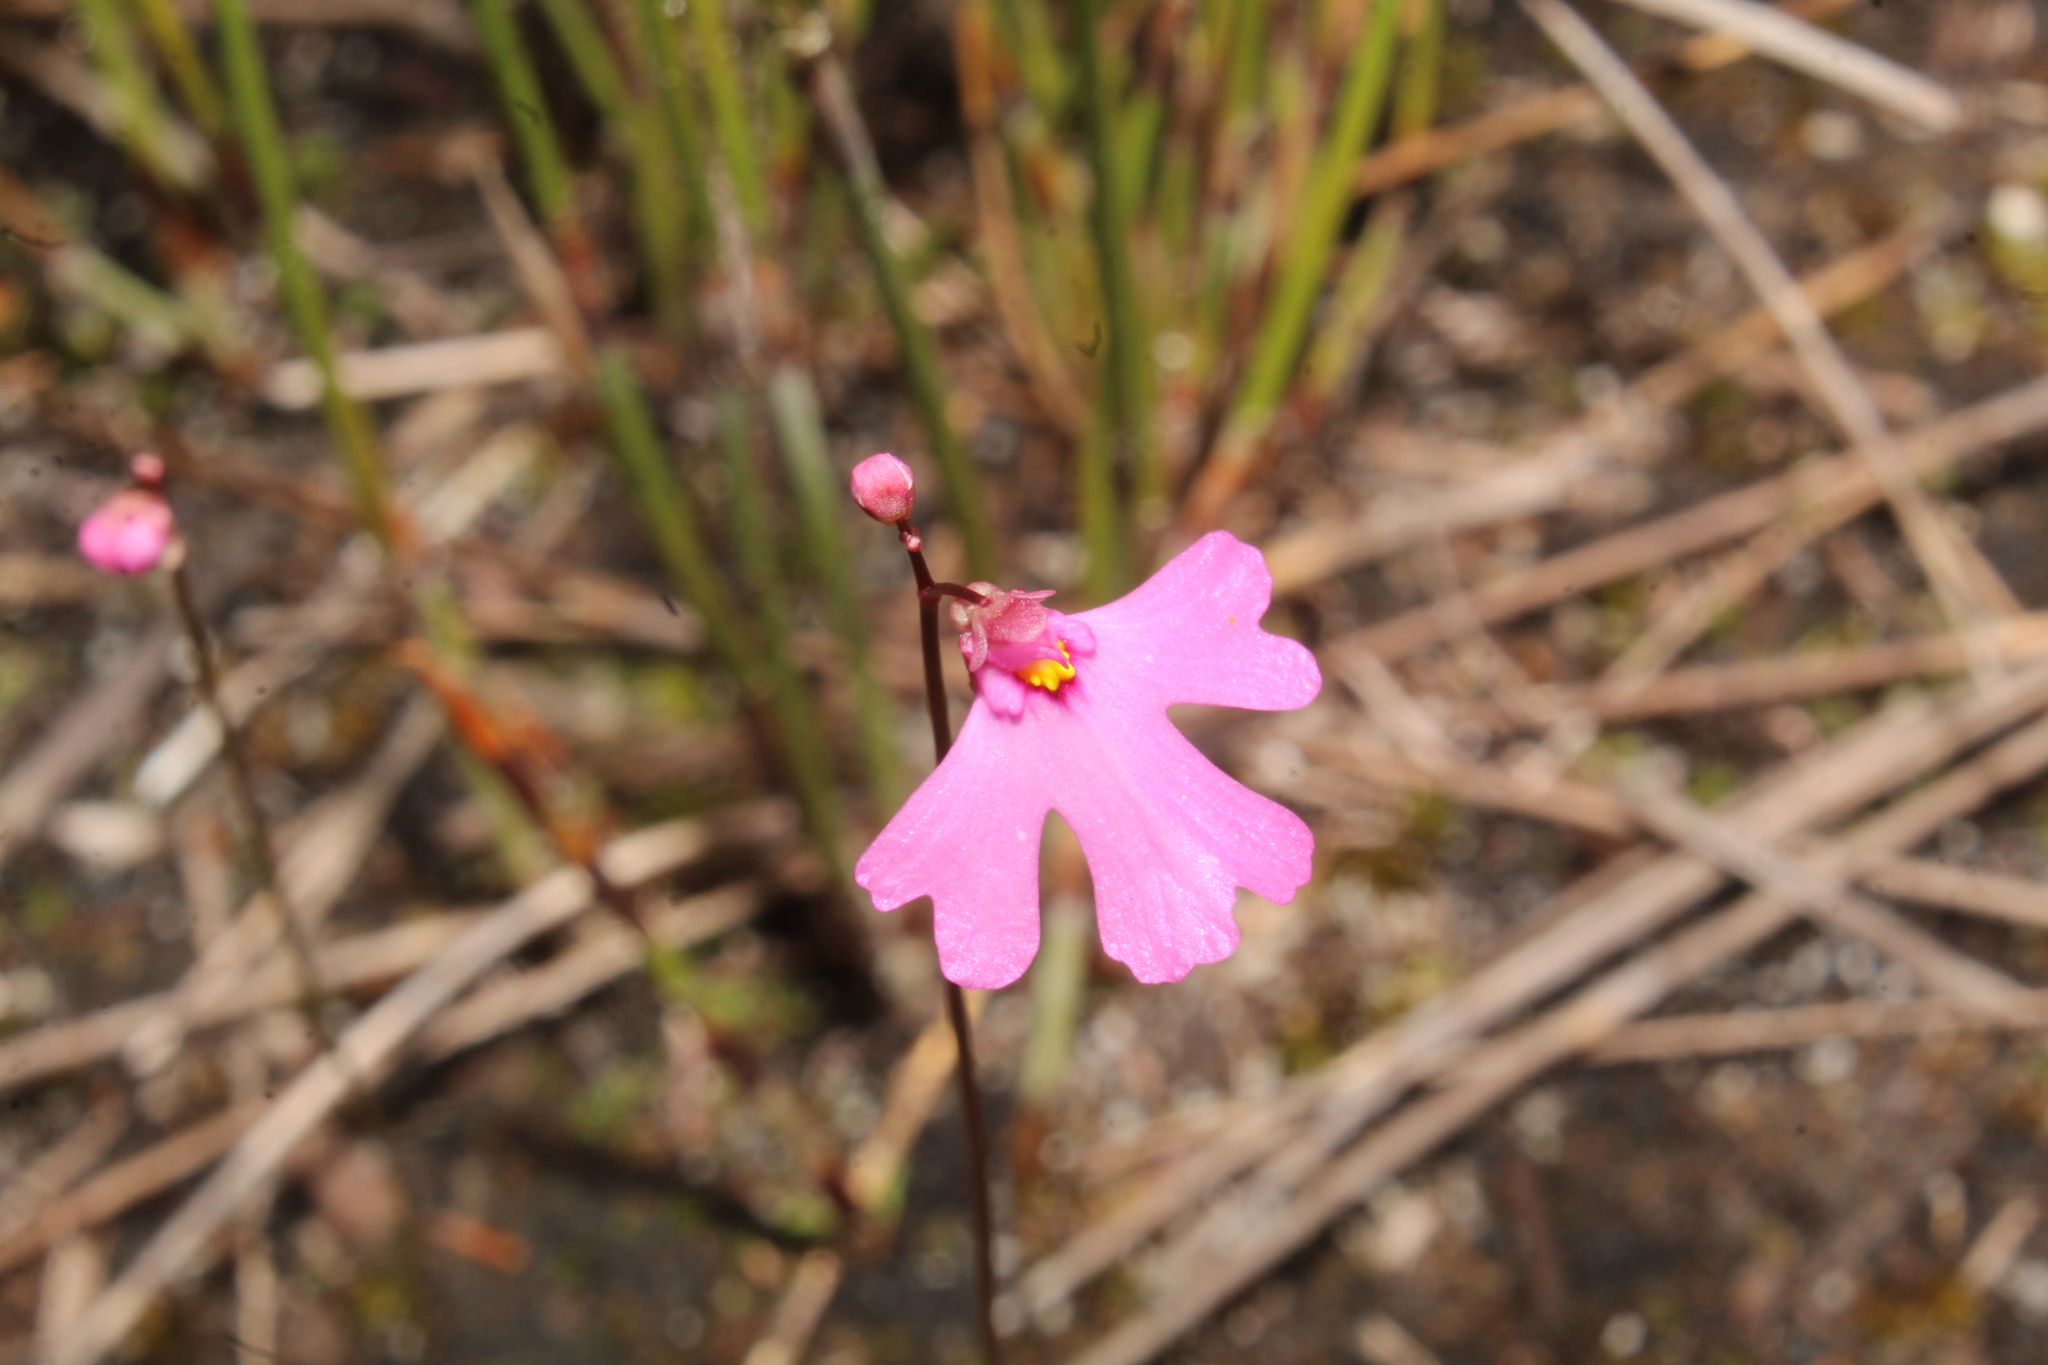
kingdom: Plantae
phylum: Tracheophyta
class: Magnoliopsida
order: Lamiales
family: Lentibulariaceae
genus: Utricularia
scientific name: Utricularia multifida
